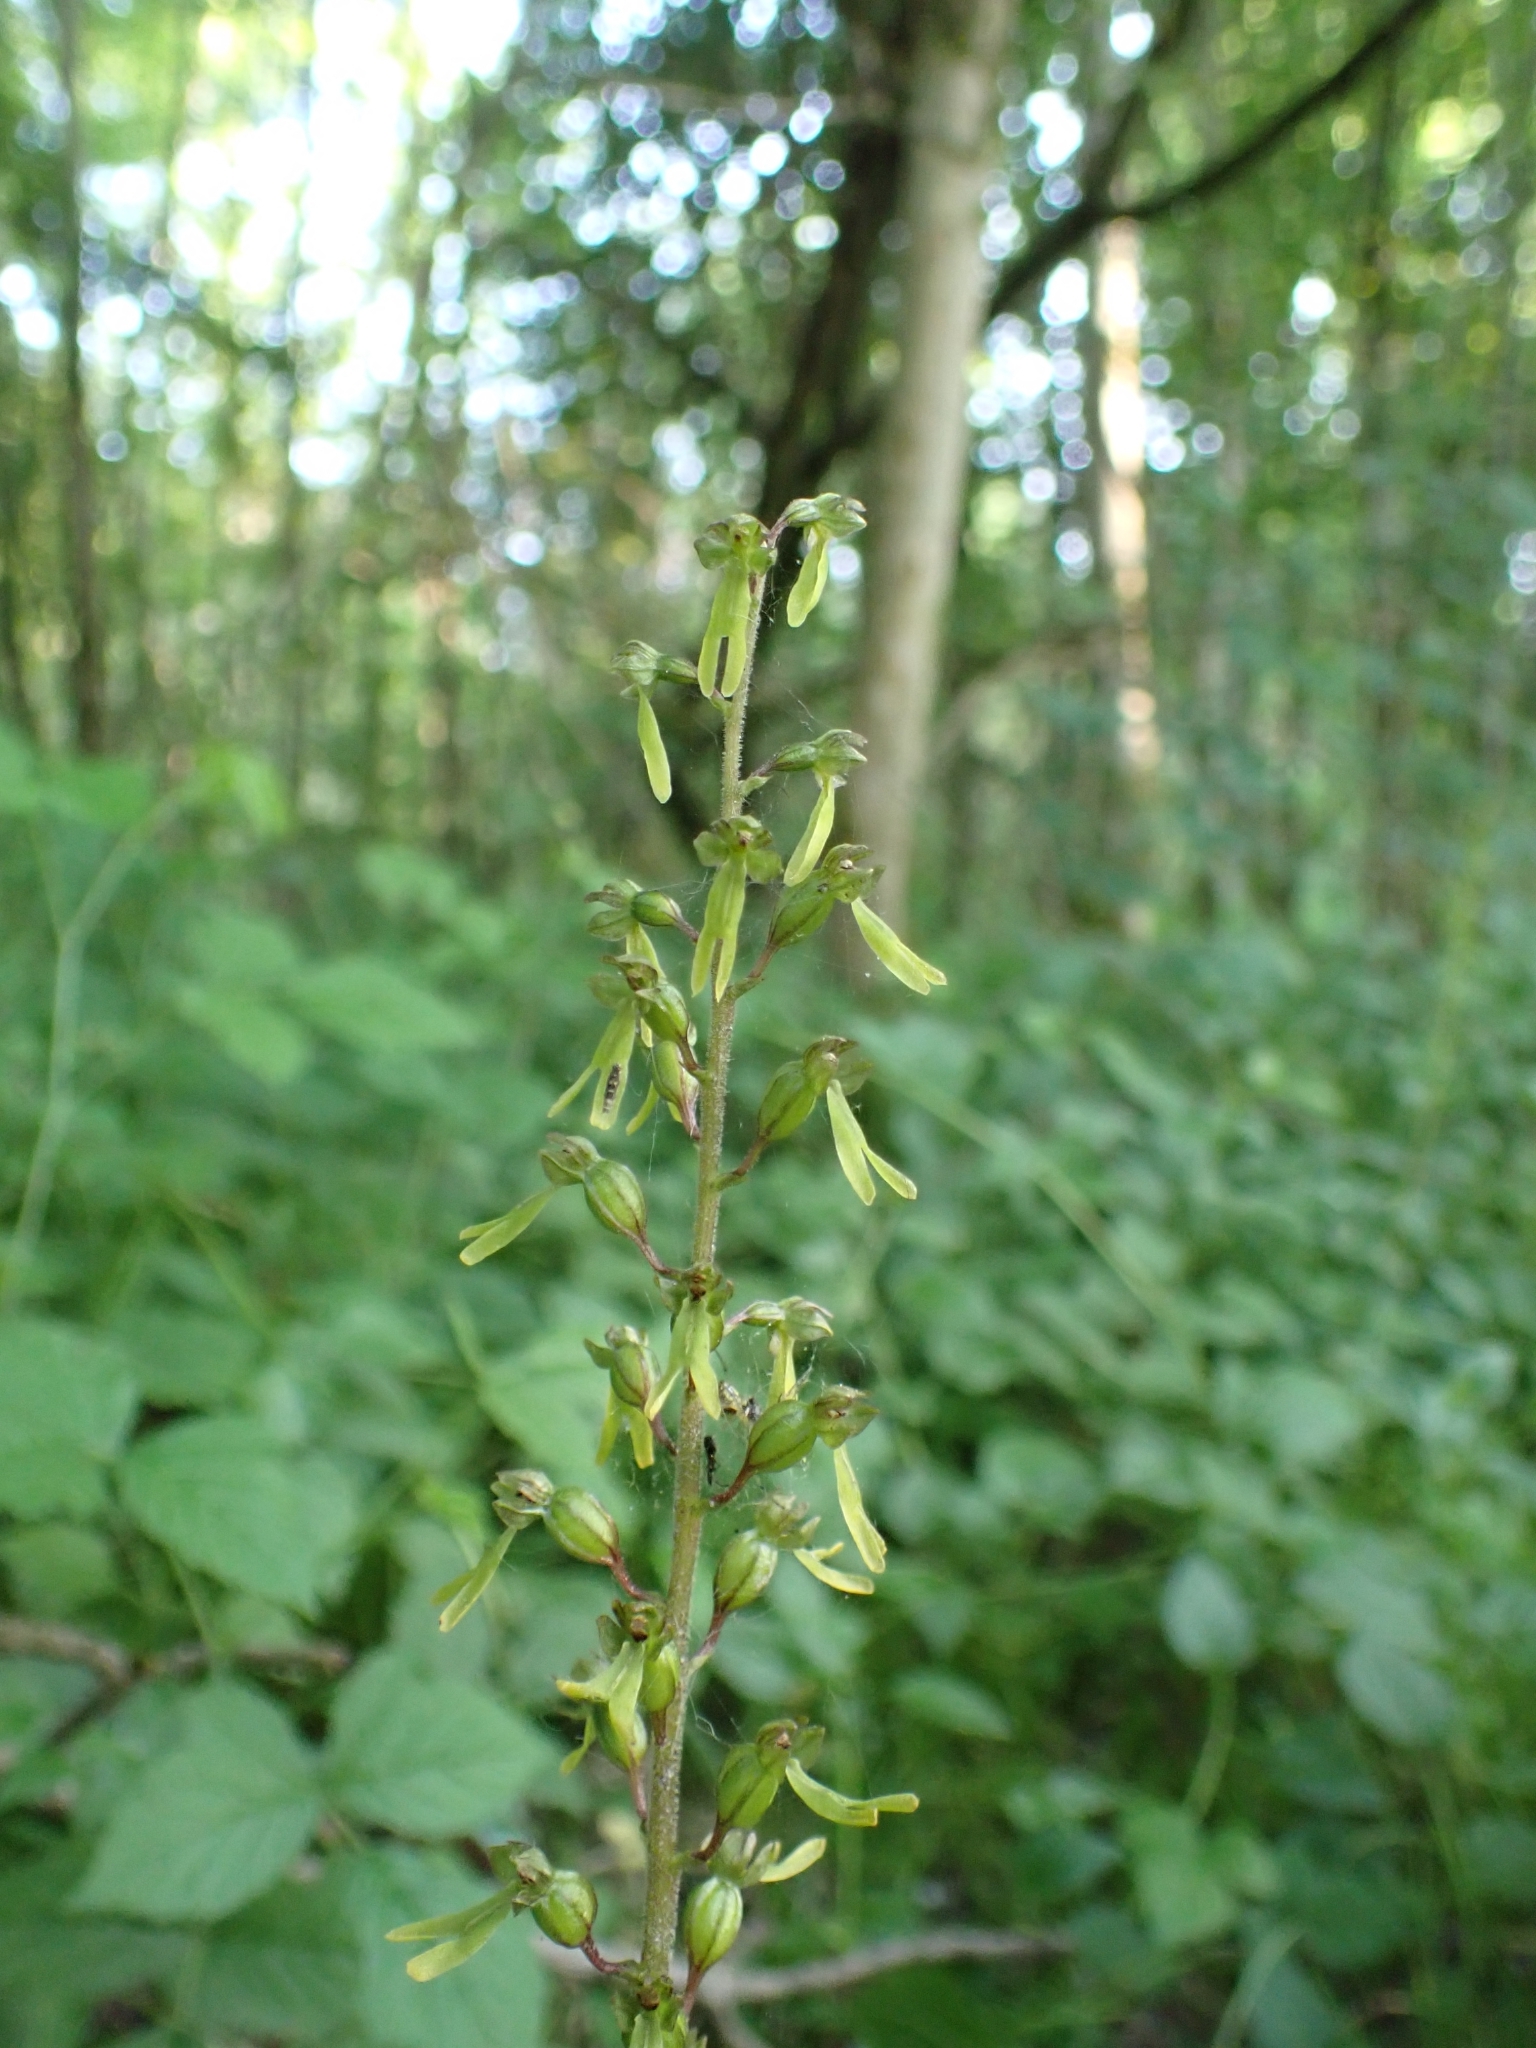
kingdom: Plantae
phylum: Tracheophyta
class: Liliopsida
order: Asparagales
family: Orchidaceae
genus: Neottia
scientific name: Neottia ovata
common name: Common twayblade
